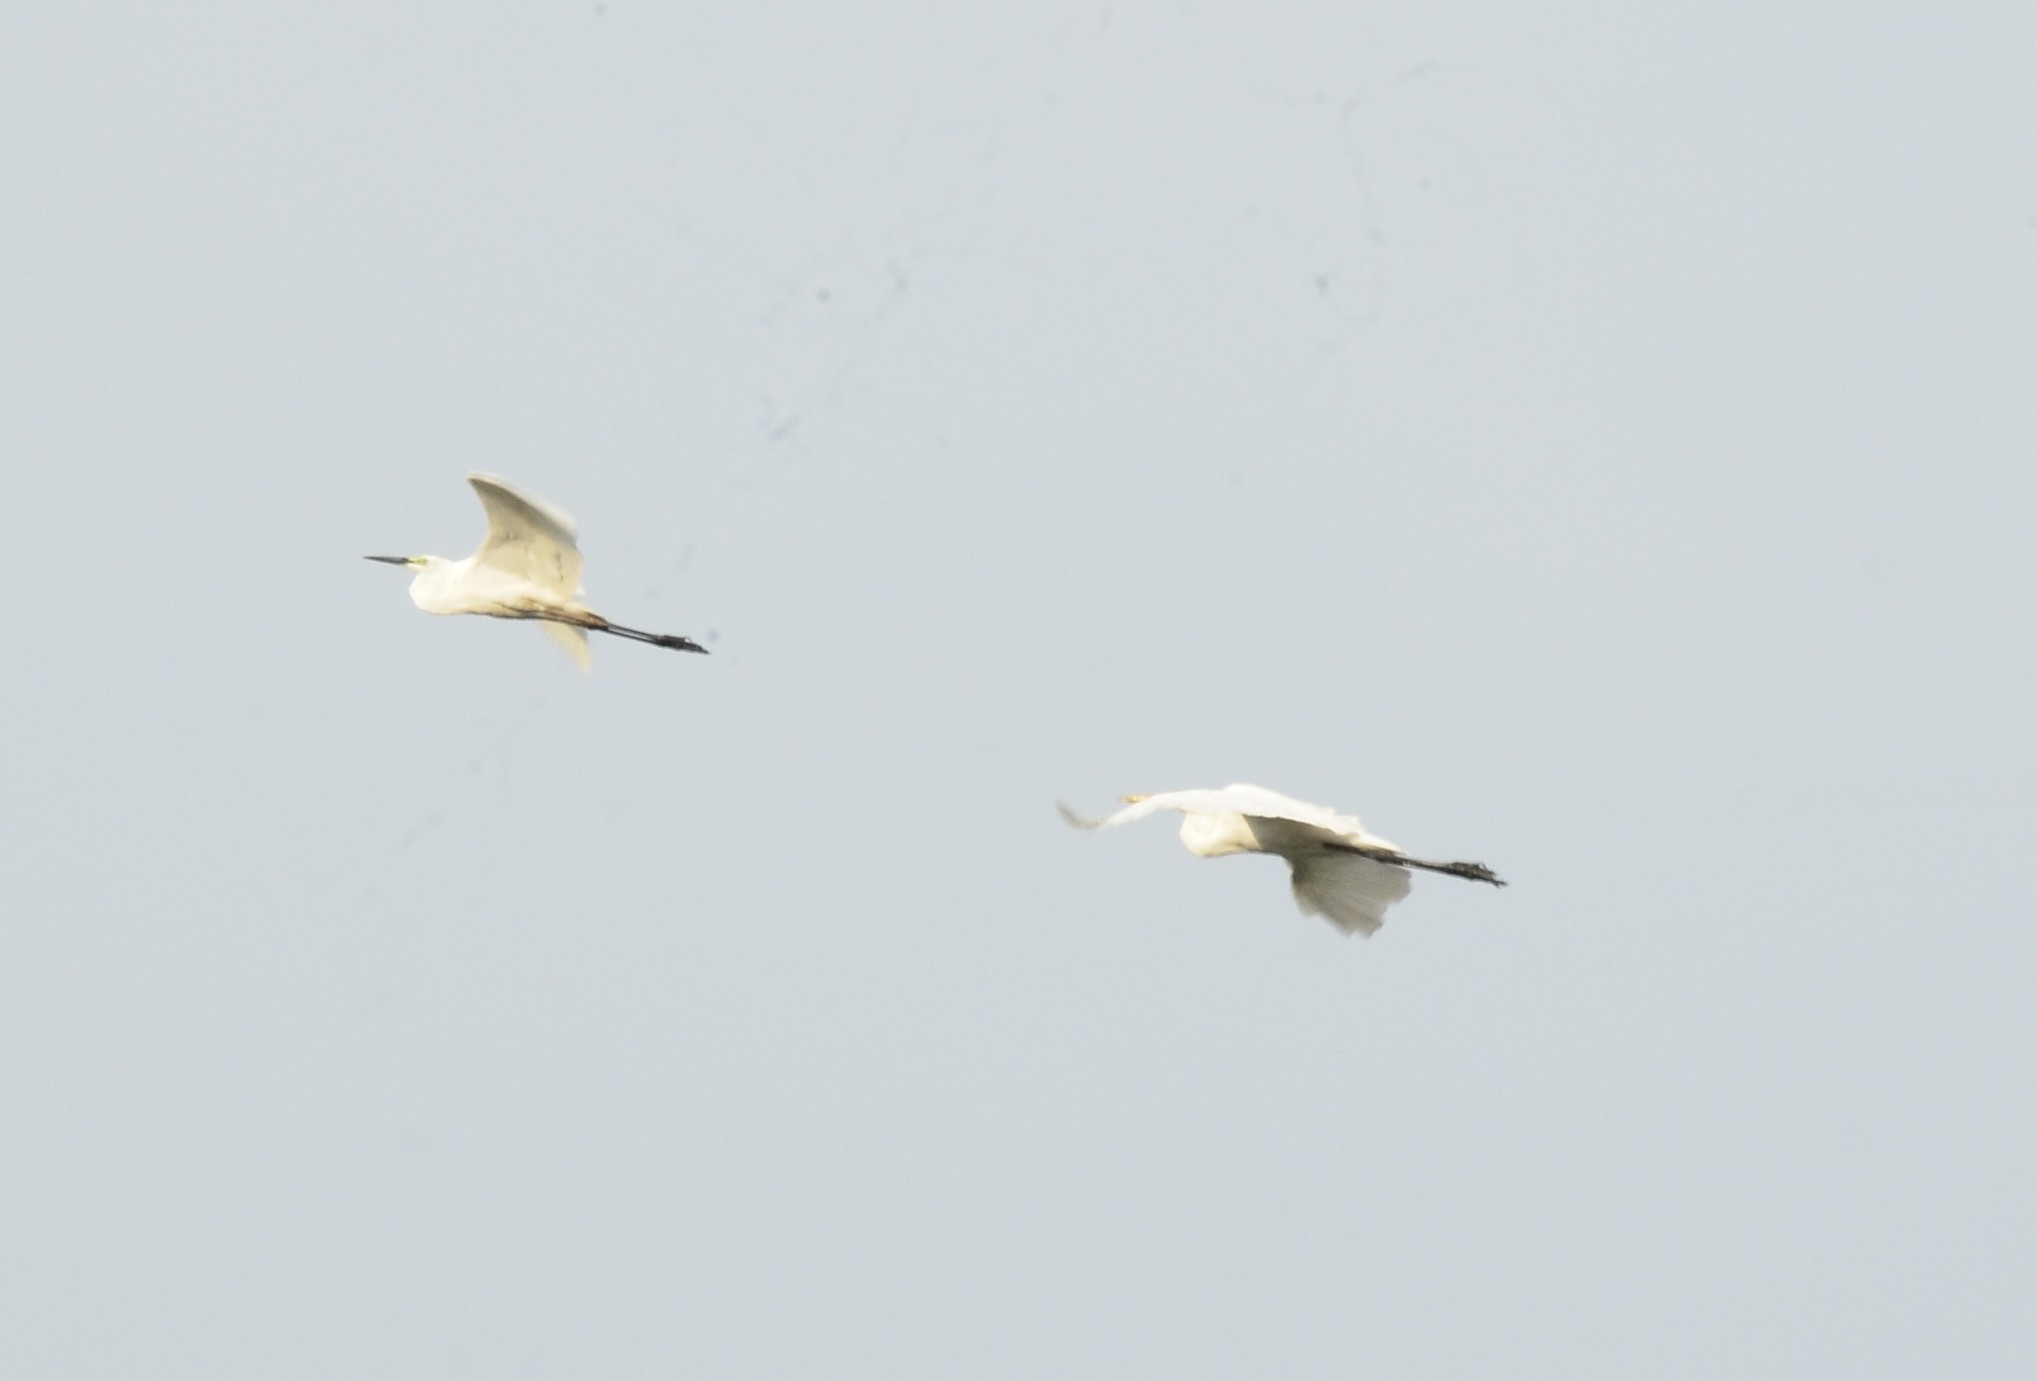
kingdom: Animalia
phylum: Chordata
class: Aves
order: Pelecaniformes
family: Ardeidae
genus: Egretta
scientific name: Egretta garzetta
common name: Little egret
